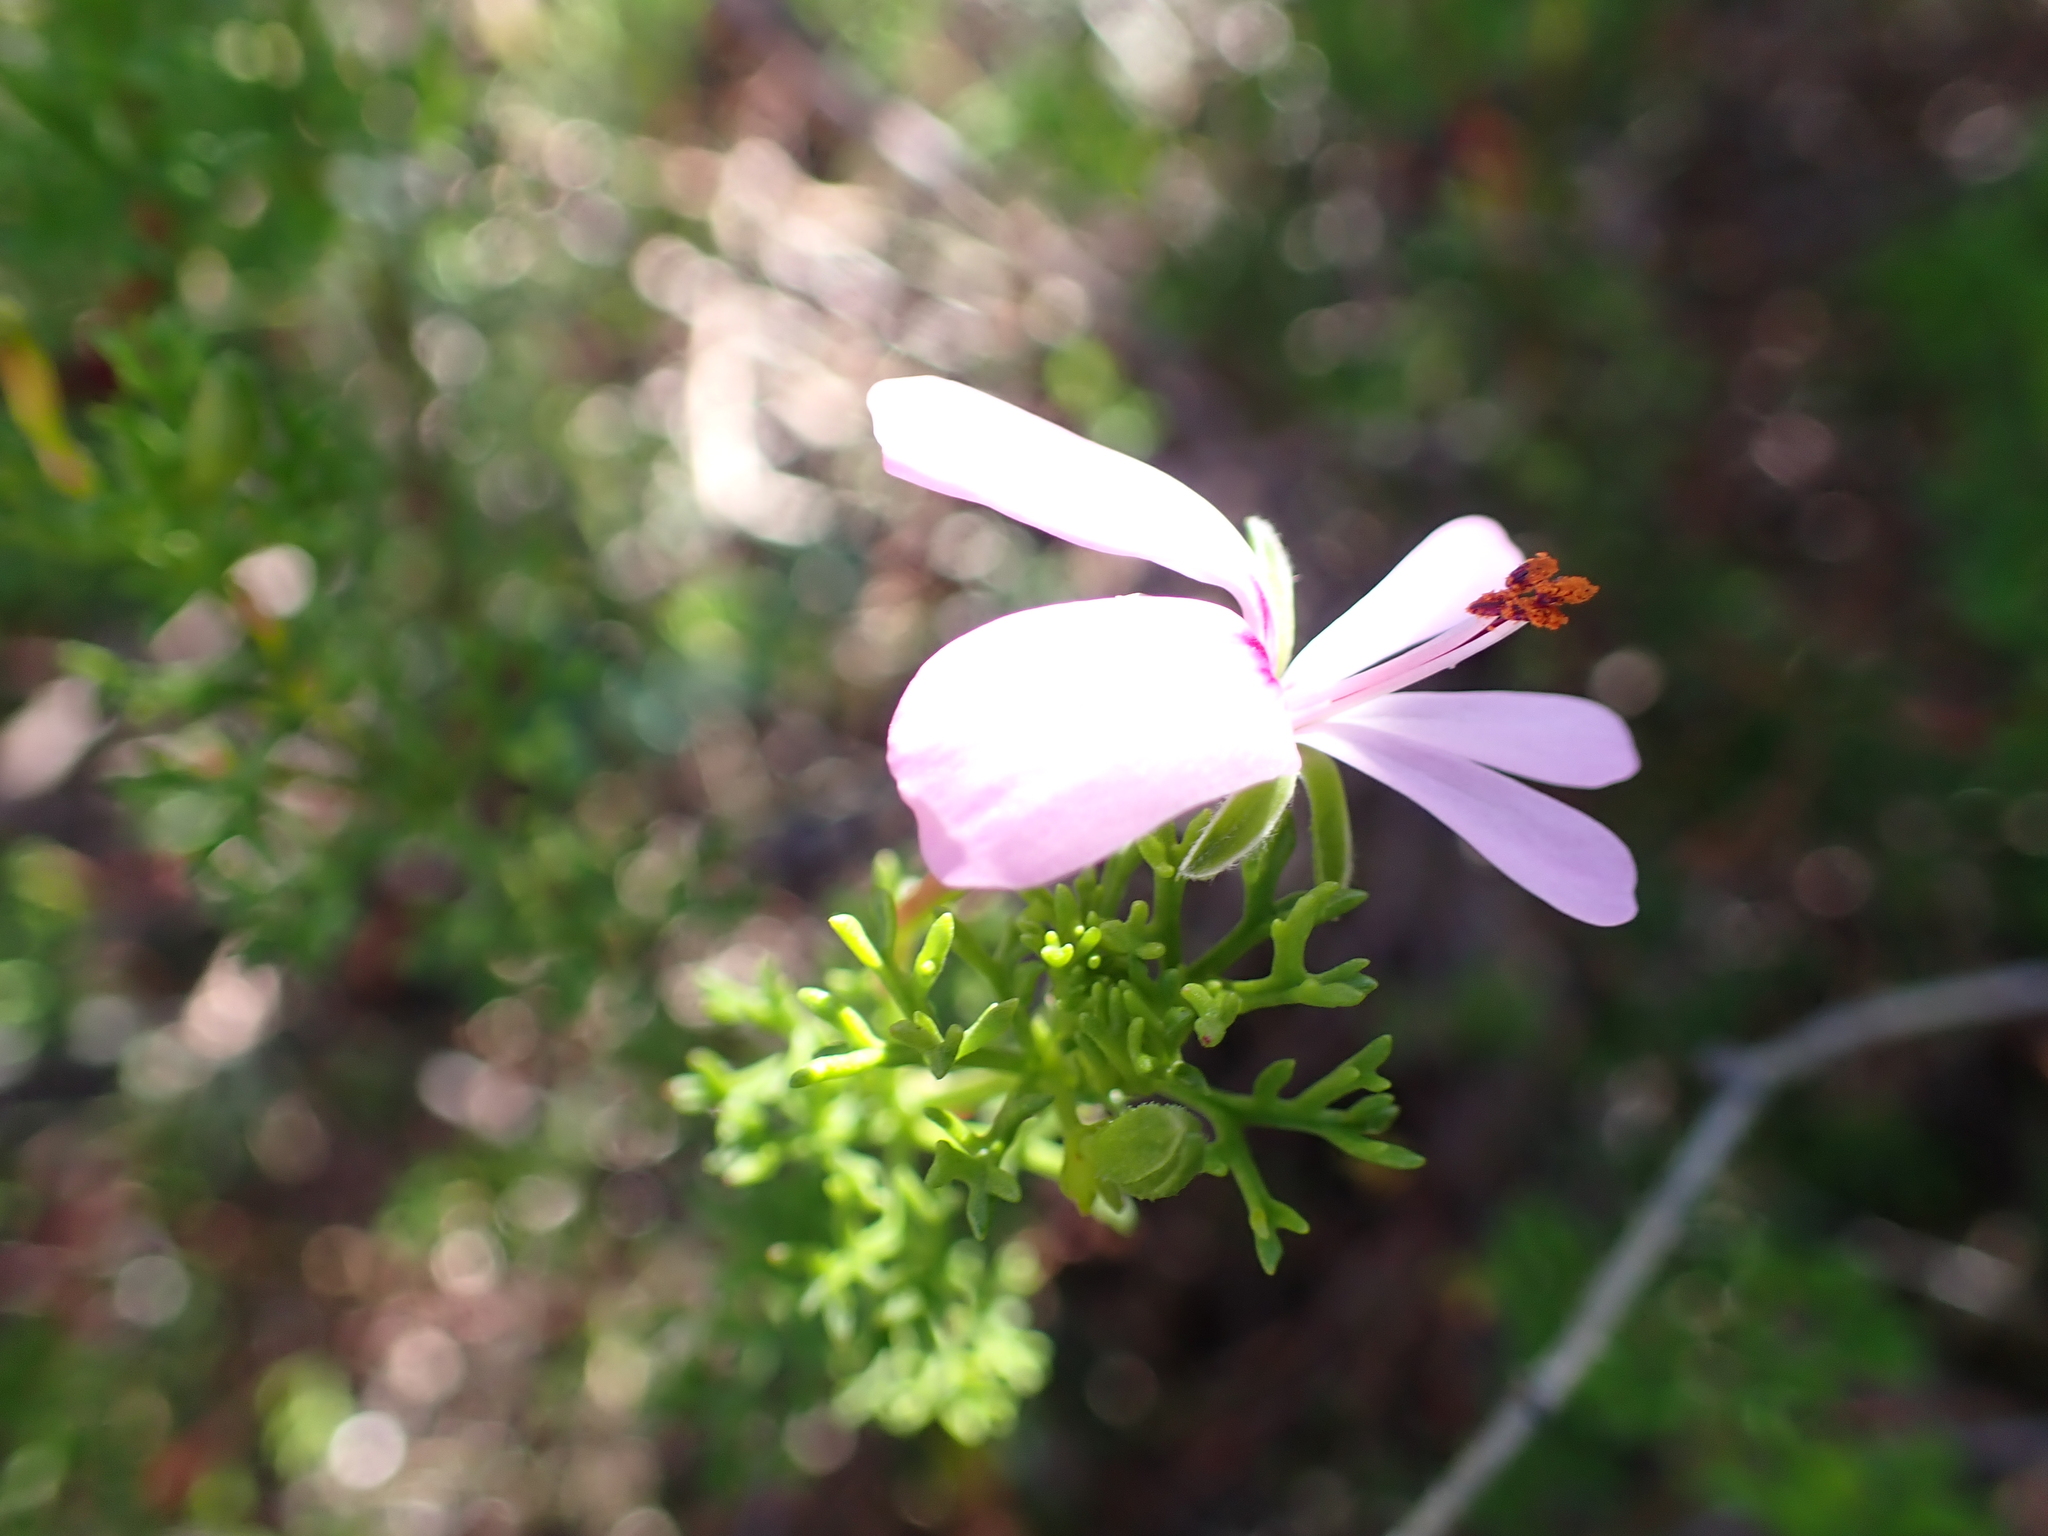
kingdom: Plantae
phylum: Tracheophyta
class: Magnoliopsida
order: Geraniales
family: Geraniaceae
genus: Pelargonium
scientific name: Pelargonium fruticosum
